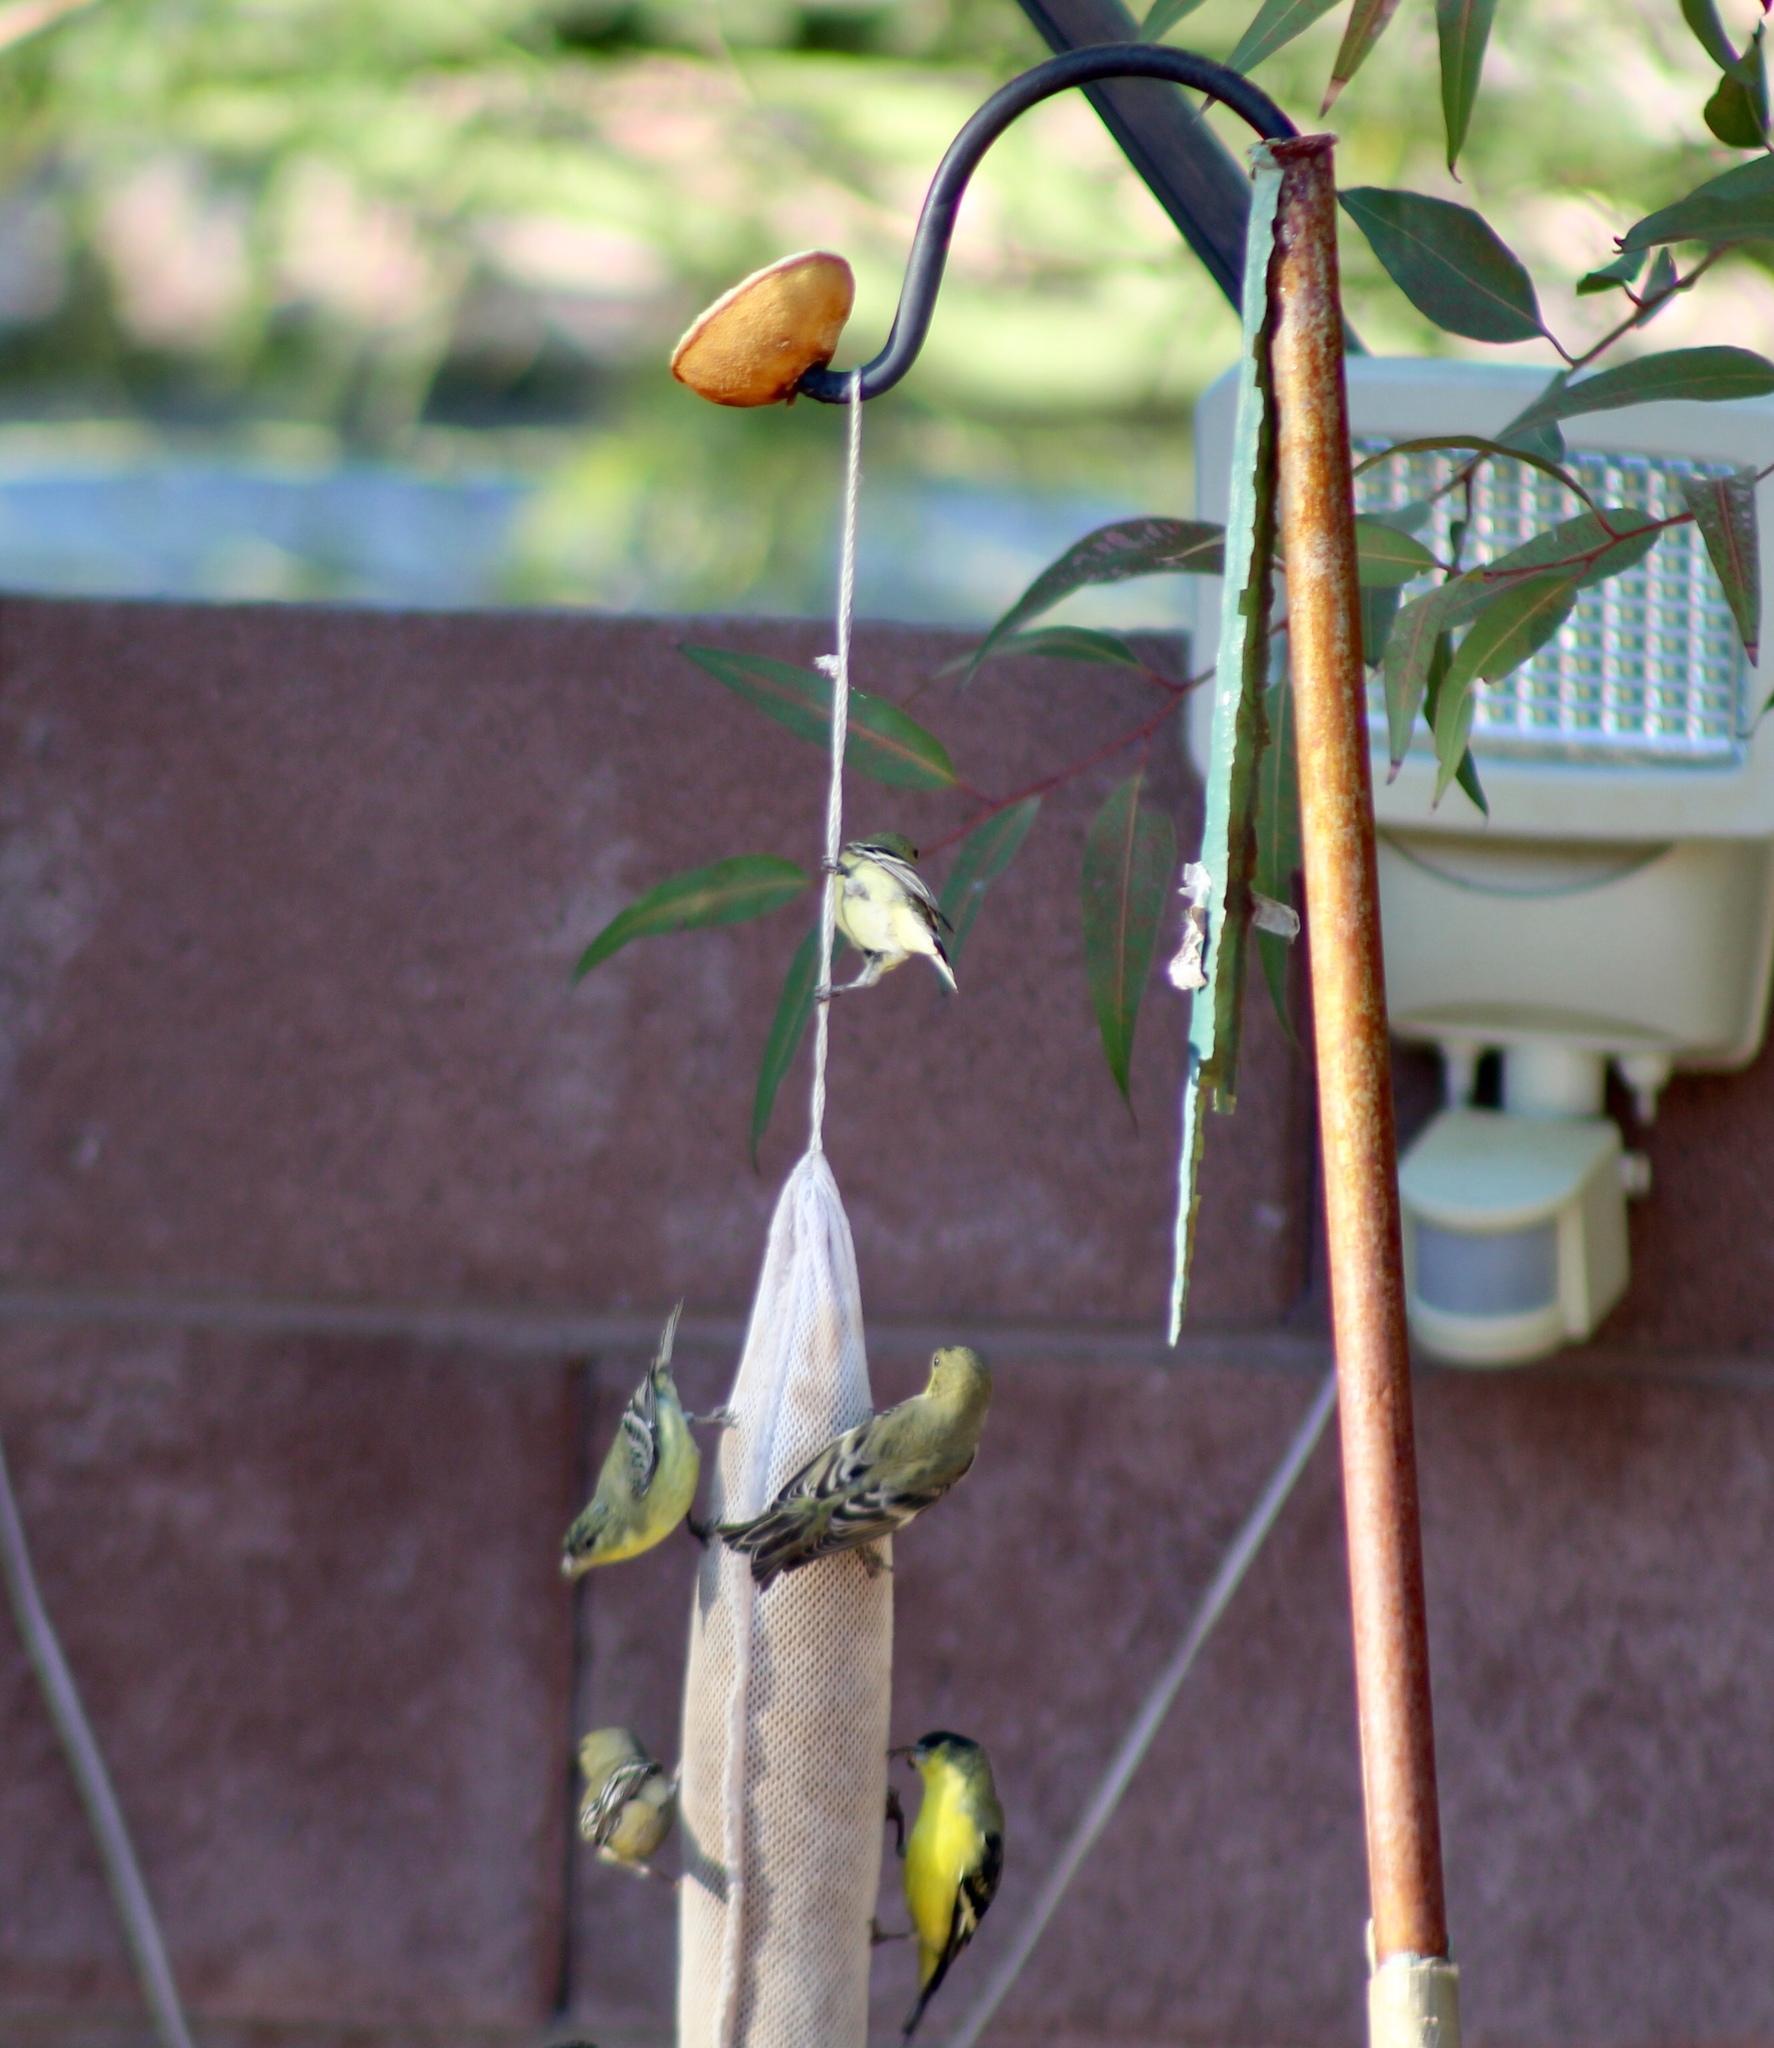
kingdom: Animalia
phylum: Chordata
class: Aves
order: Passeriformes
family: Fringillidae
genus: Spinus
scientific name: Spinus psaltria
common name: Lesser goldfinch
